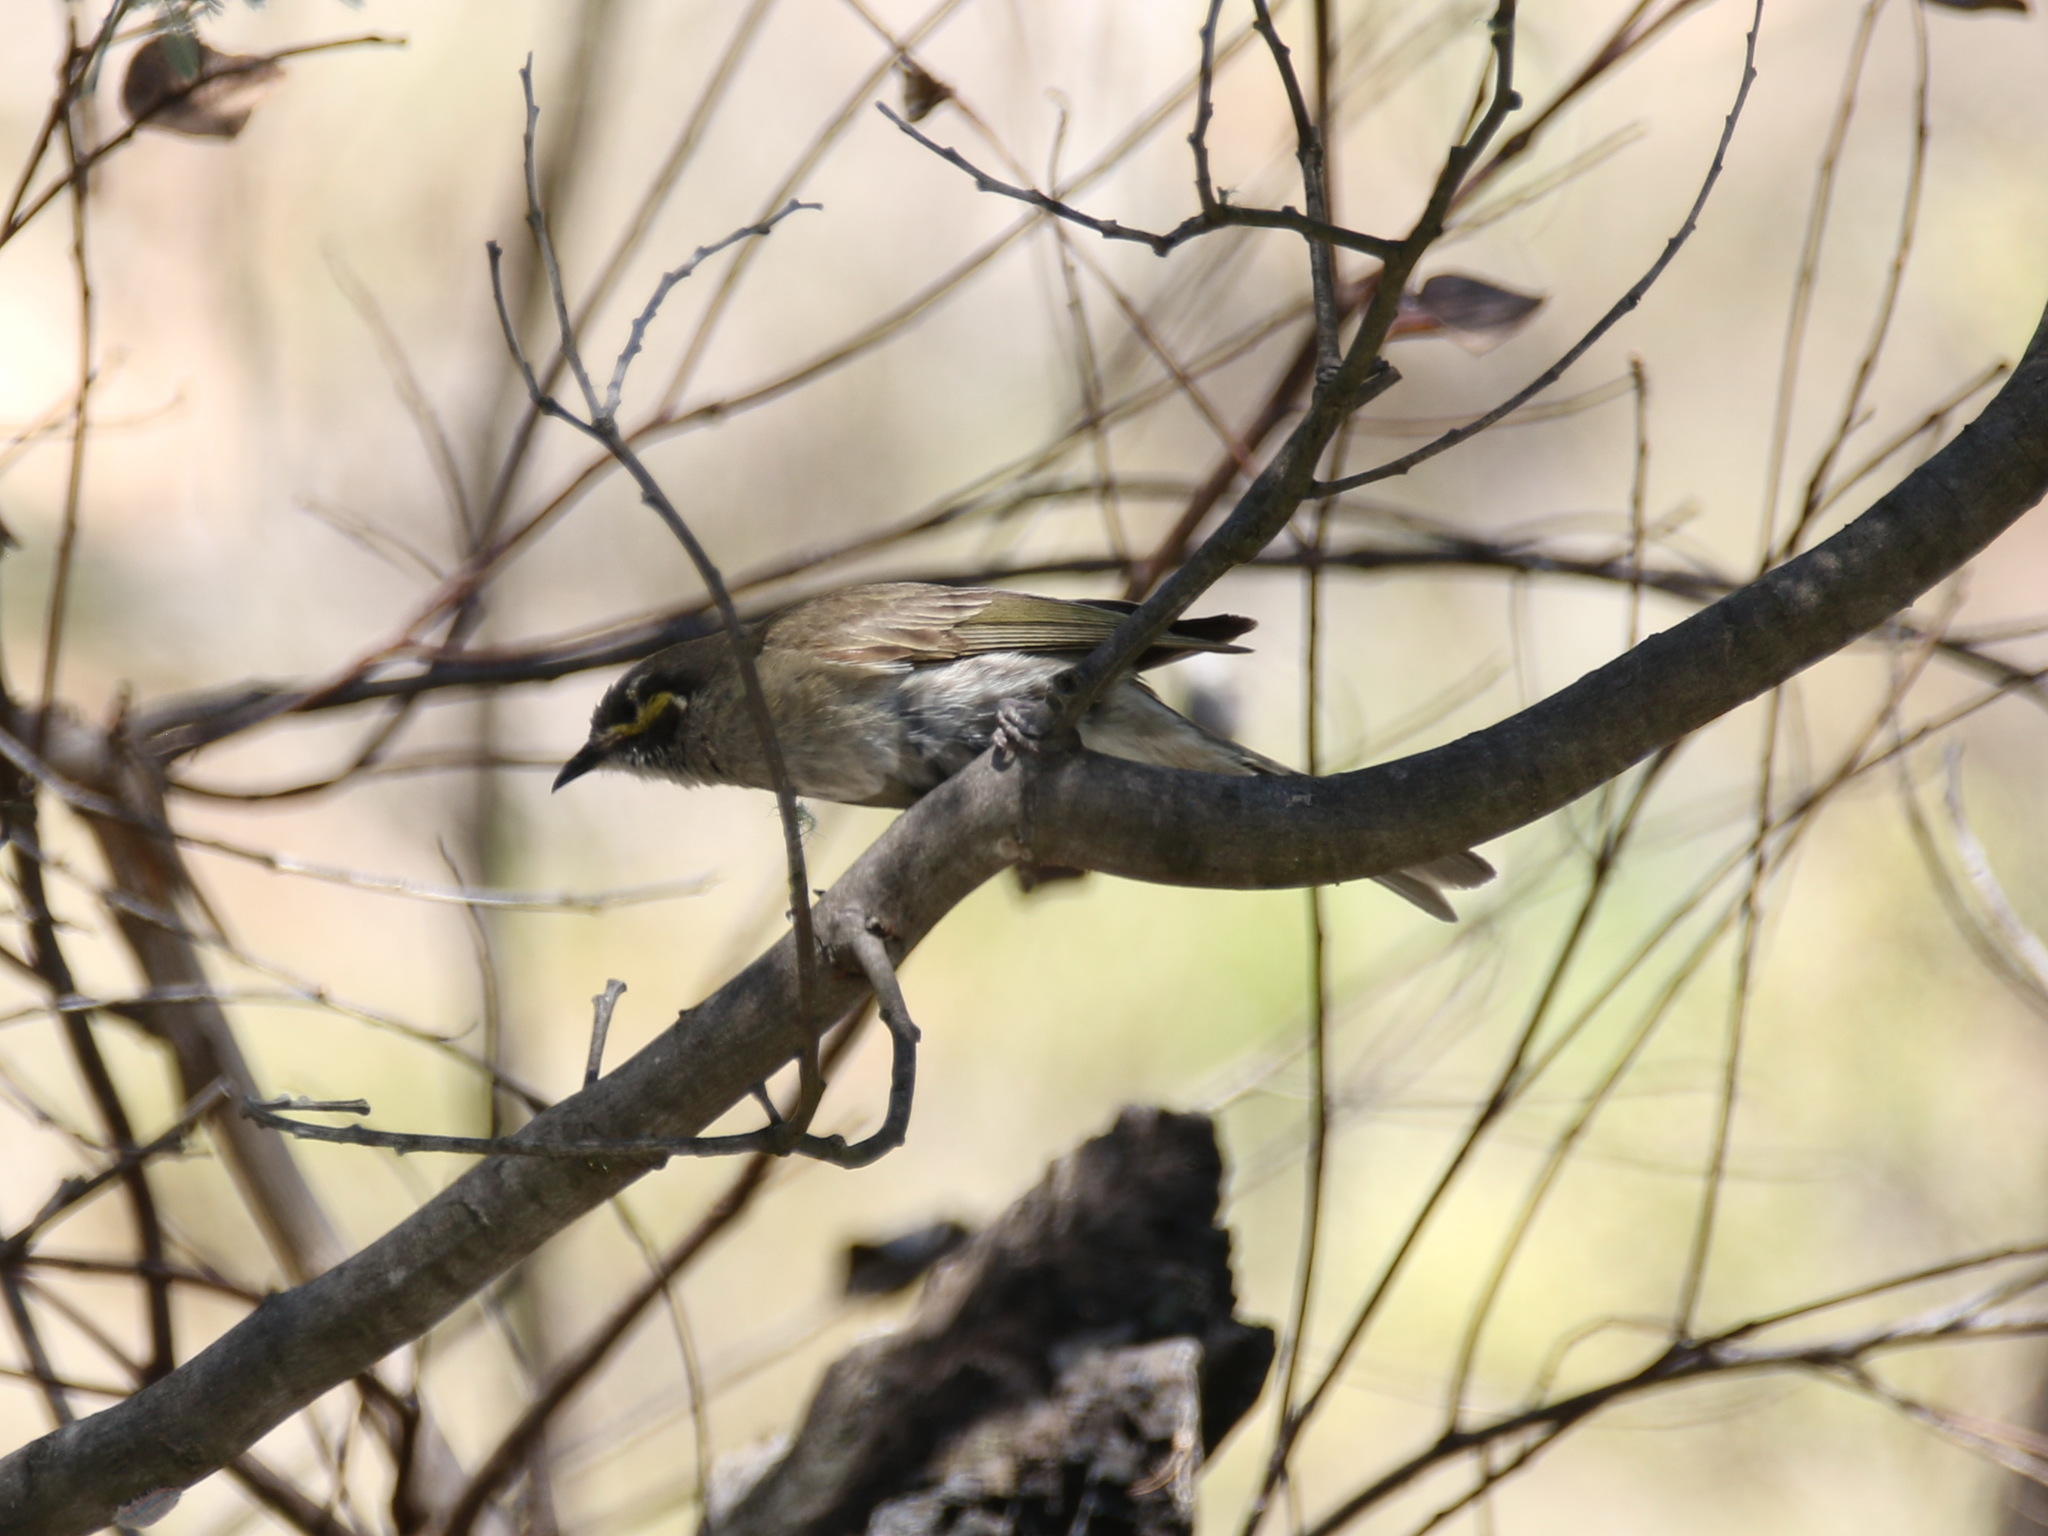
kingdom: Animalia
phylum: Chordata
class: Aves
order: Passeriformes
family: Meliphagidae
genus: Caligavis
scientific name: Caligavis chrysops
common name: Yellow-faced honeyeater
